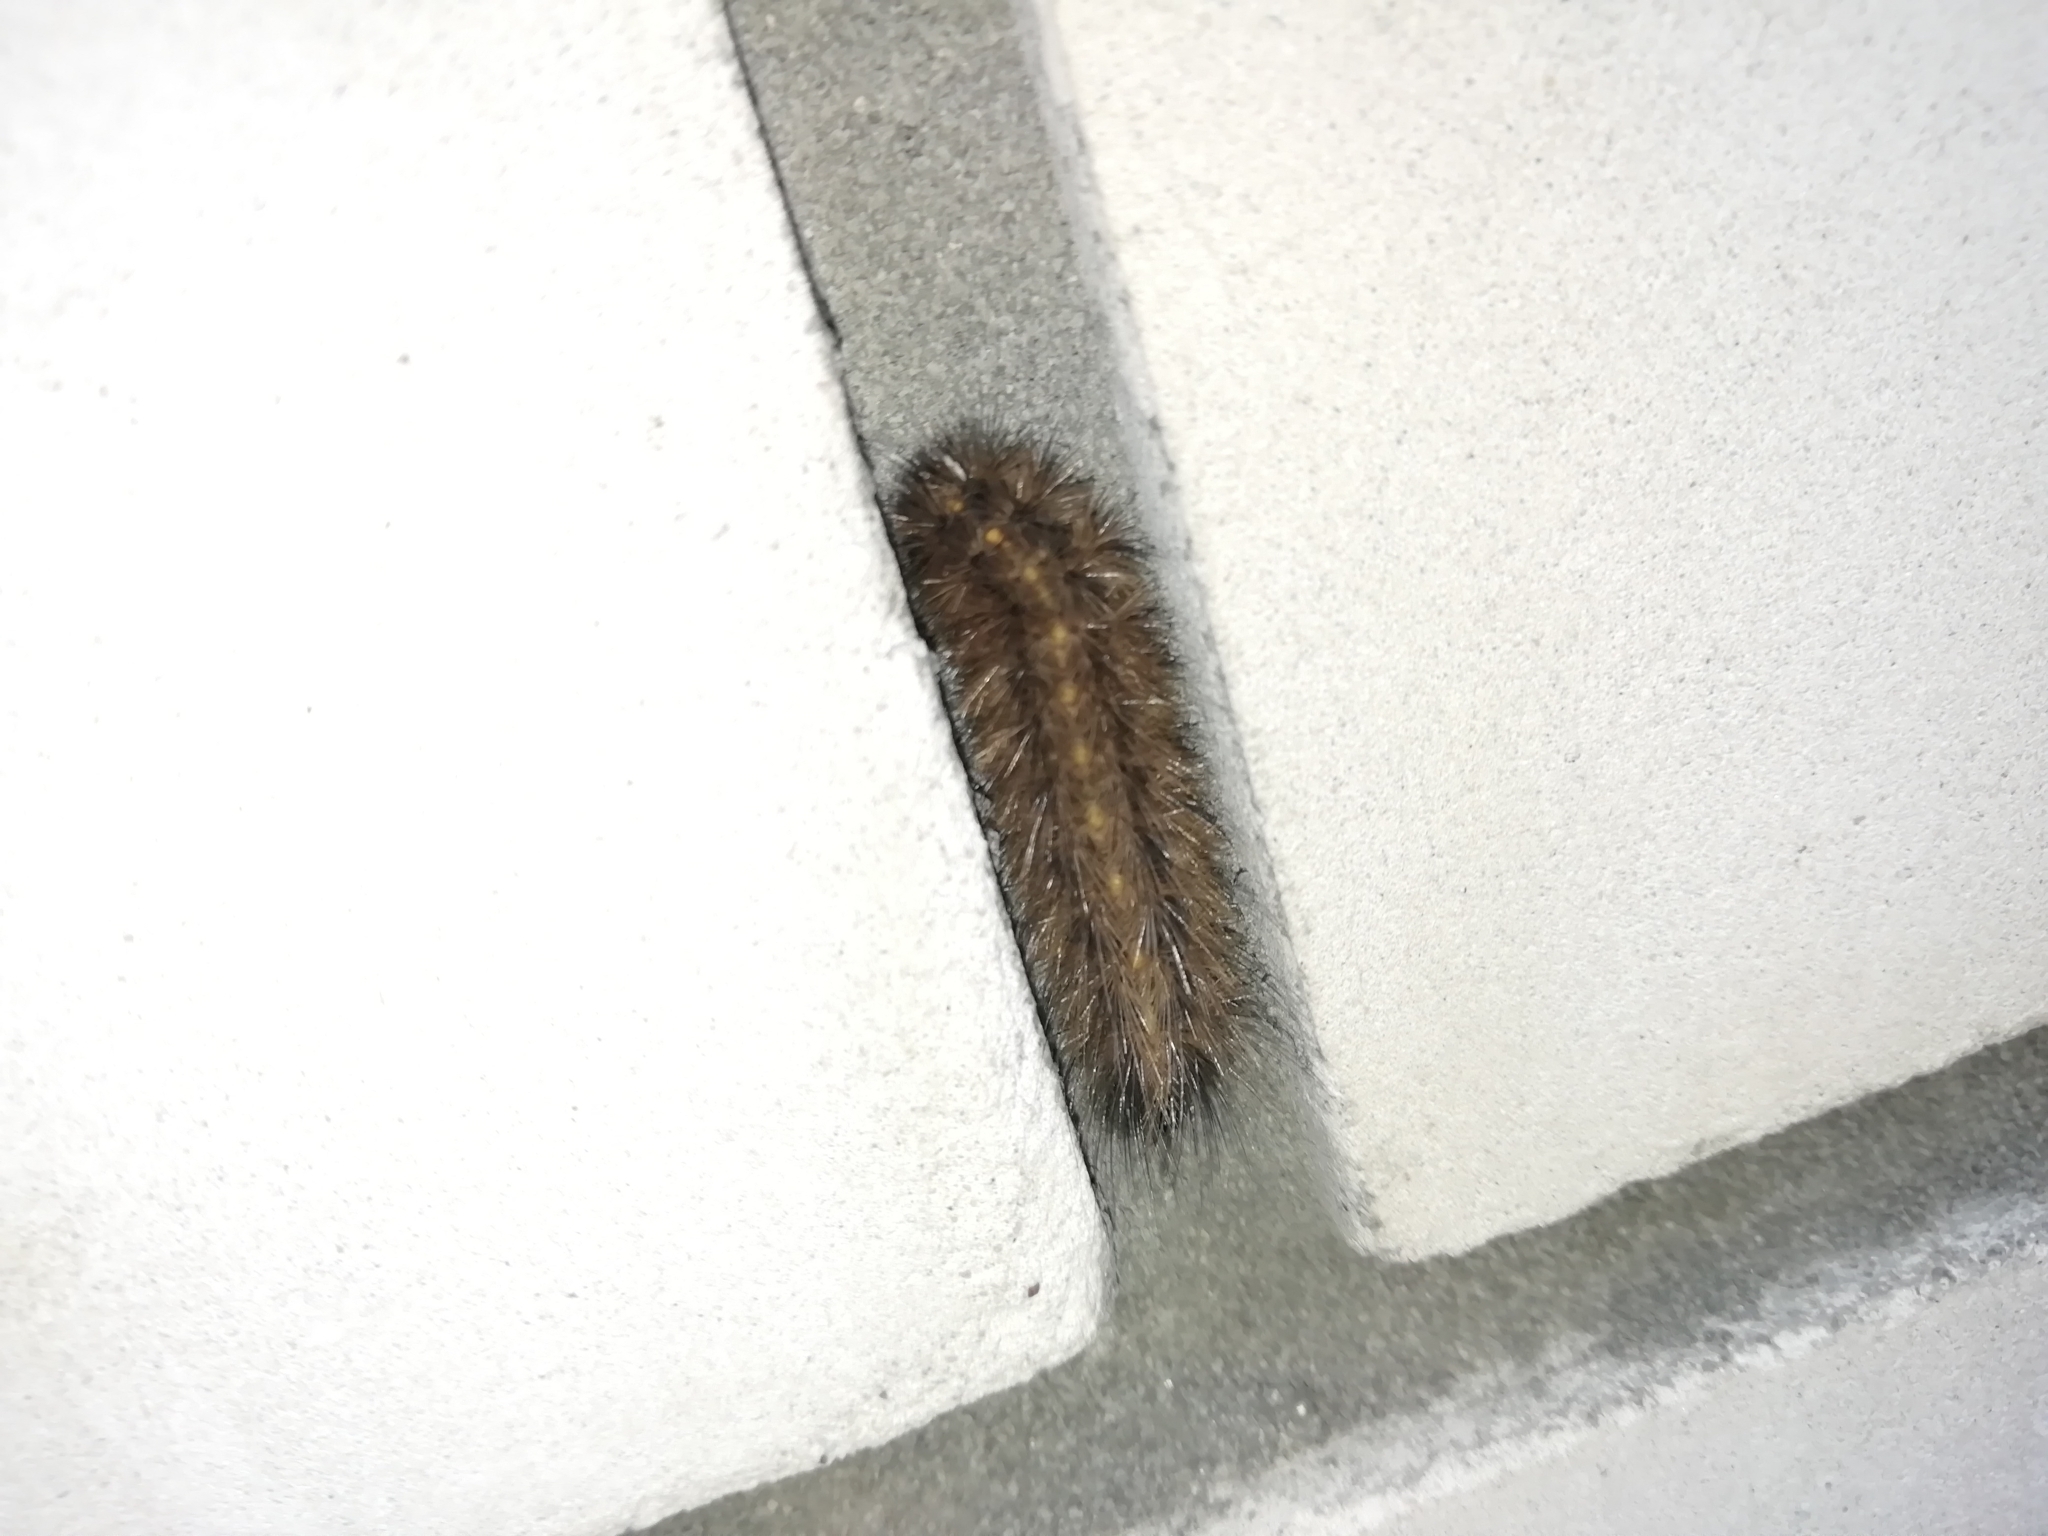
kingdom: Animalia
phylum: Arthropoda
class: Insecta
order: Lepidoptera
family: Erebidae
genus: Phragmatobia
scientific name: Phragmatobia fuliginosa
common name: Ruby tiger
